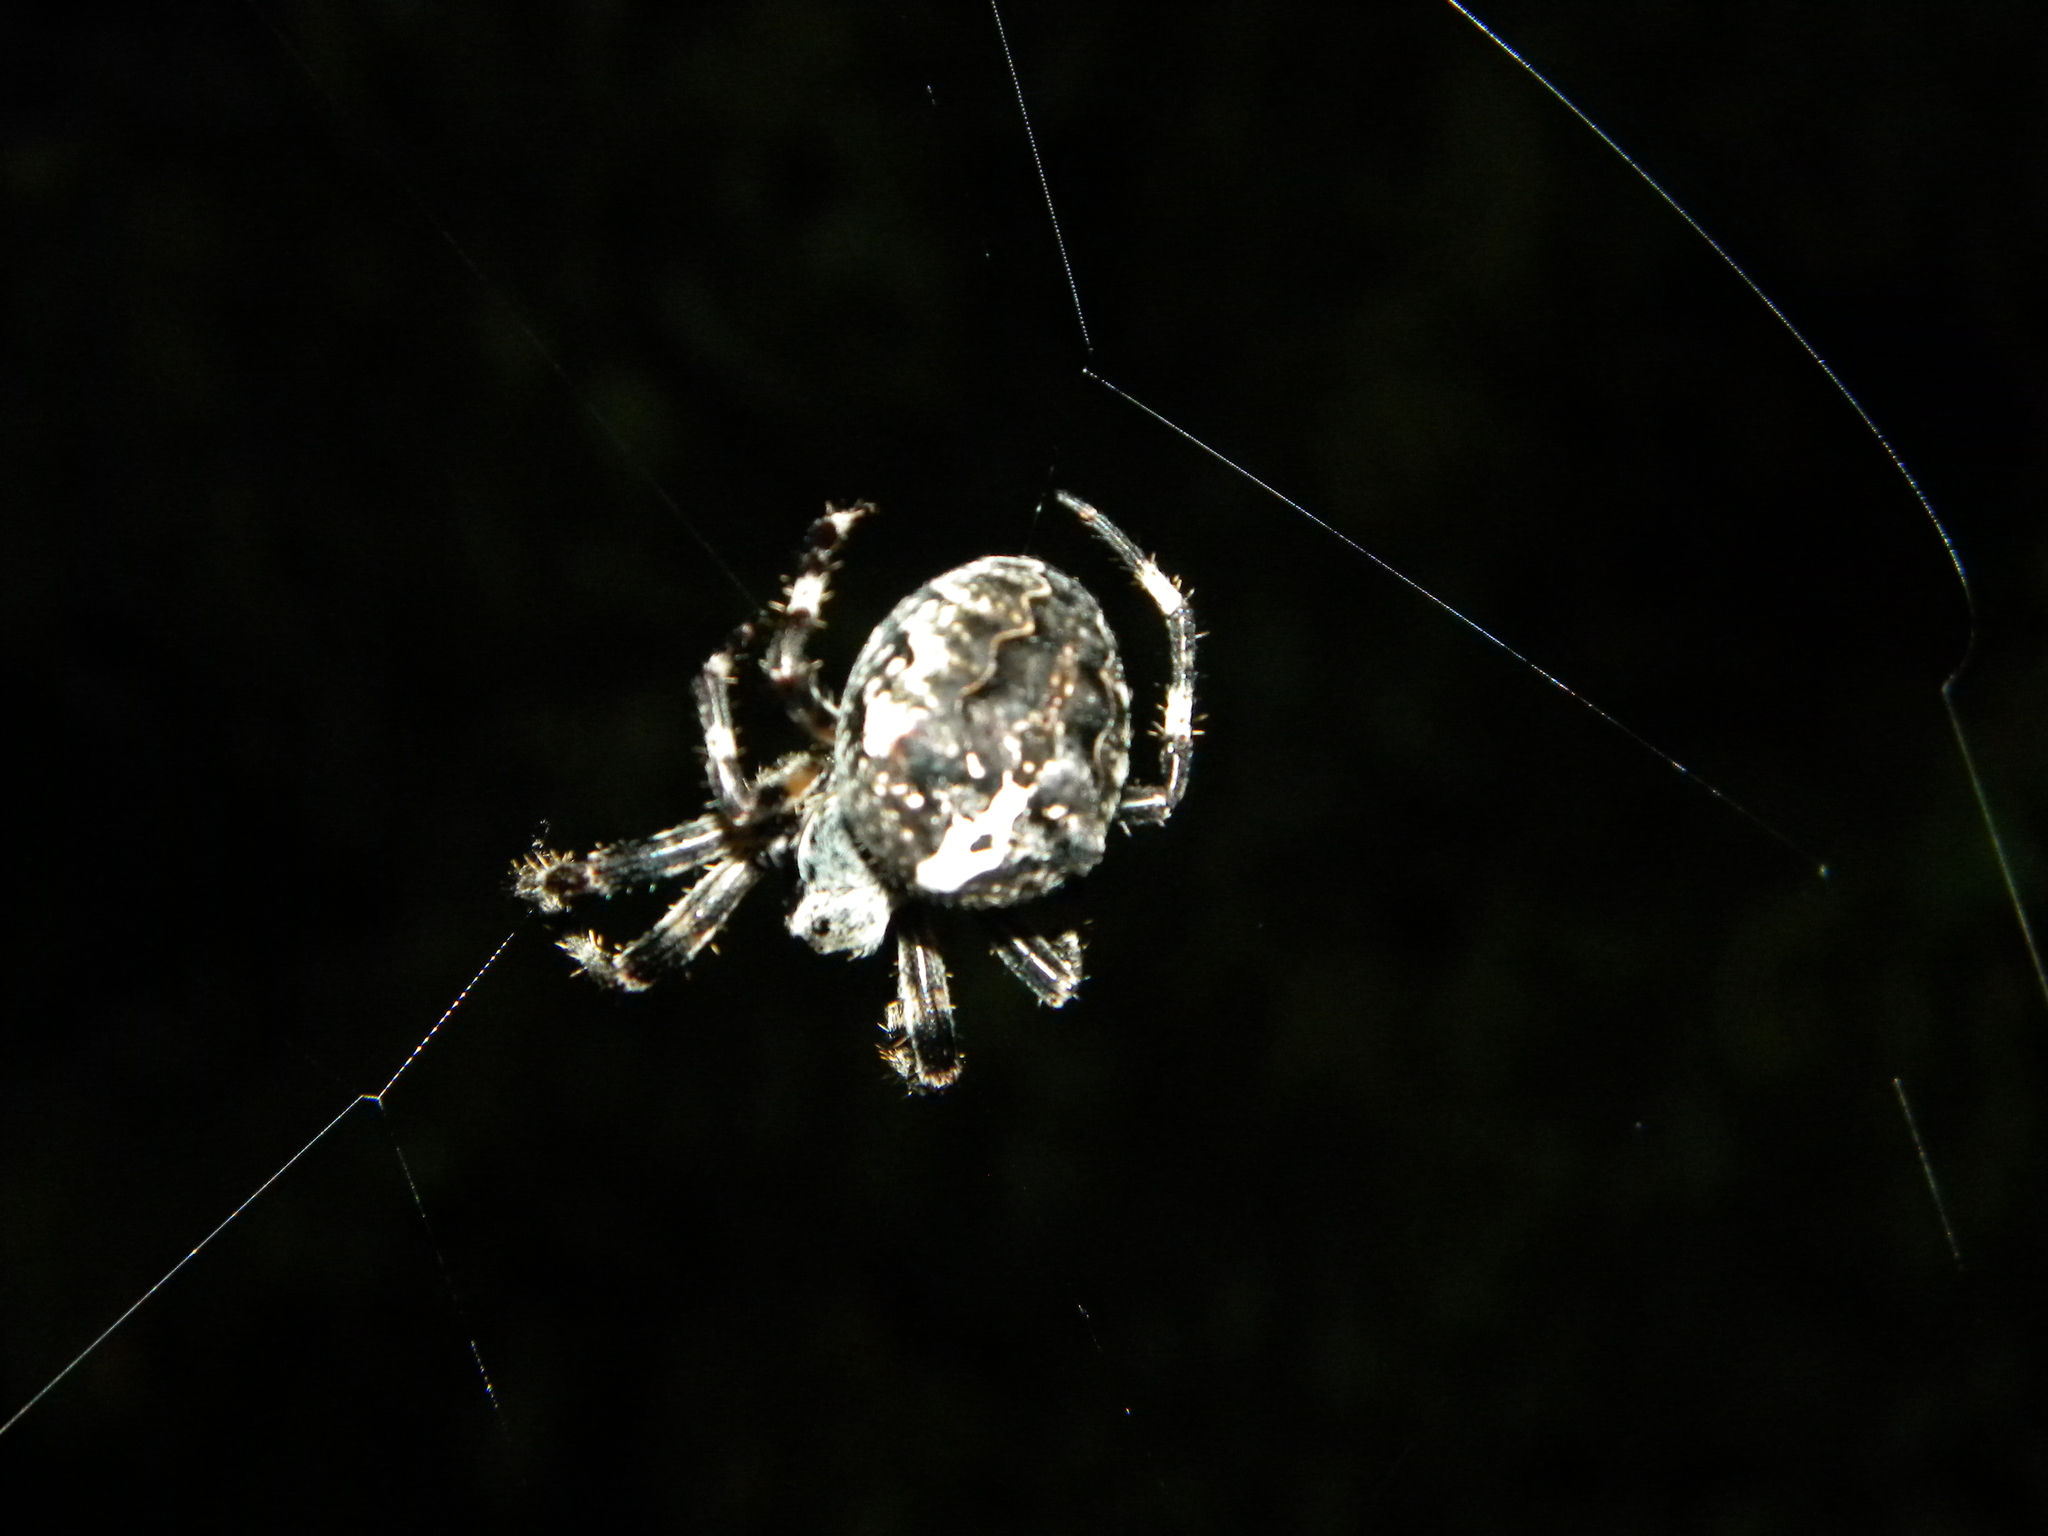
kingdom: Animalia
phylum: Arthropoda
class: Arachnida
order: Araneae
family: Araneidae
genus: Araneus
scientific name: Araneus angulatus
